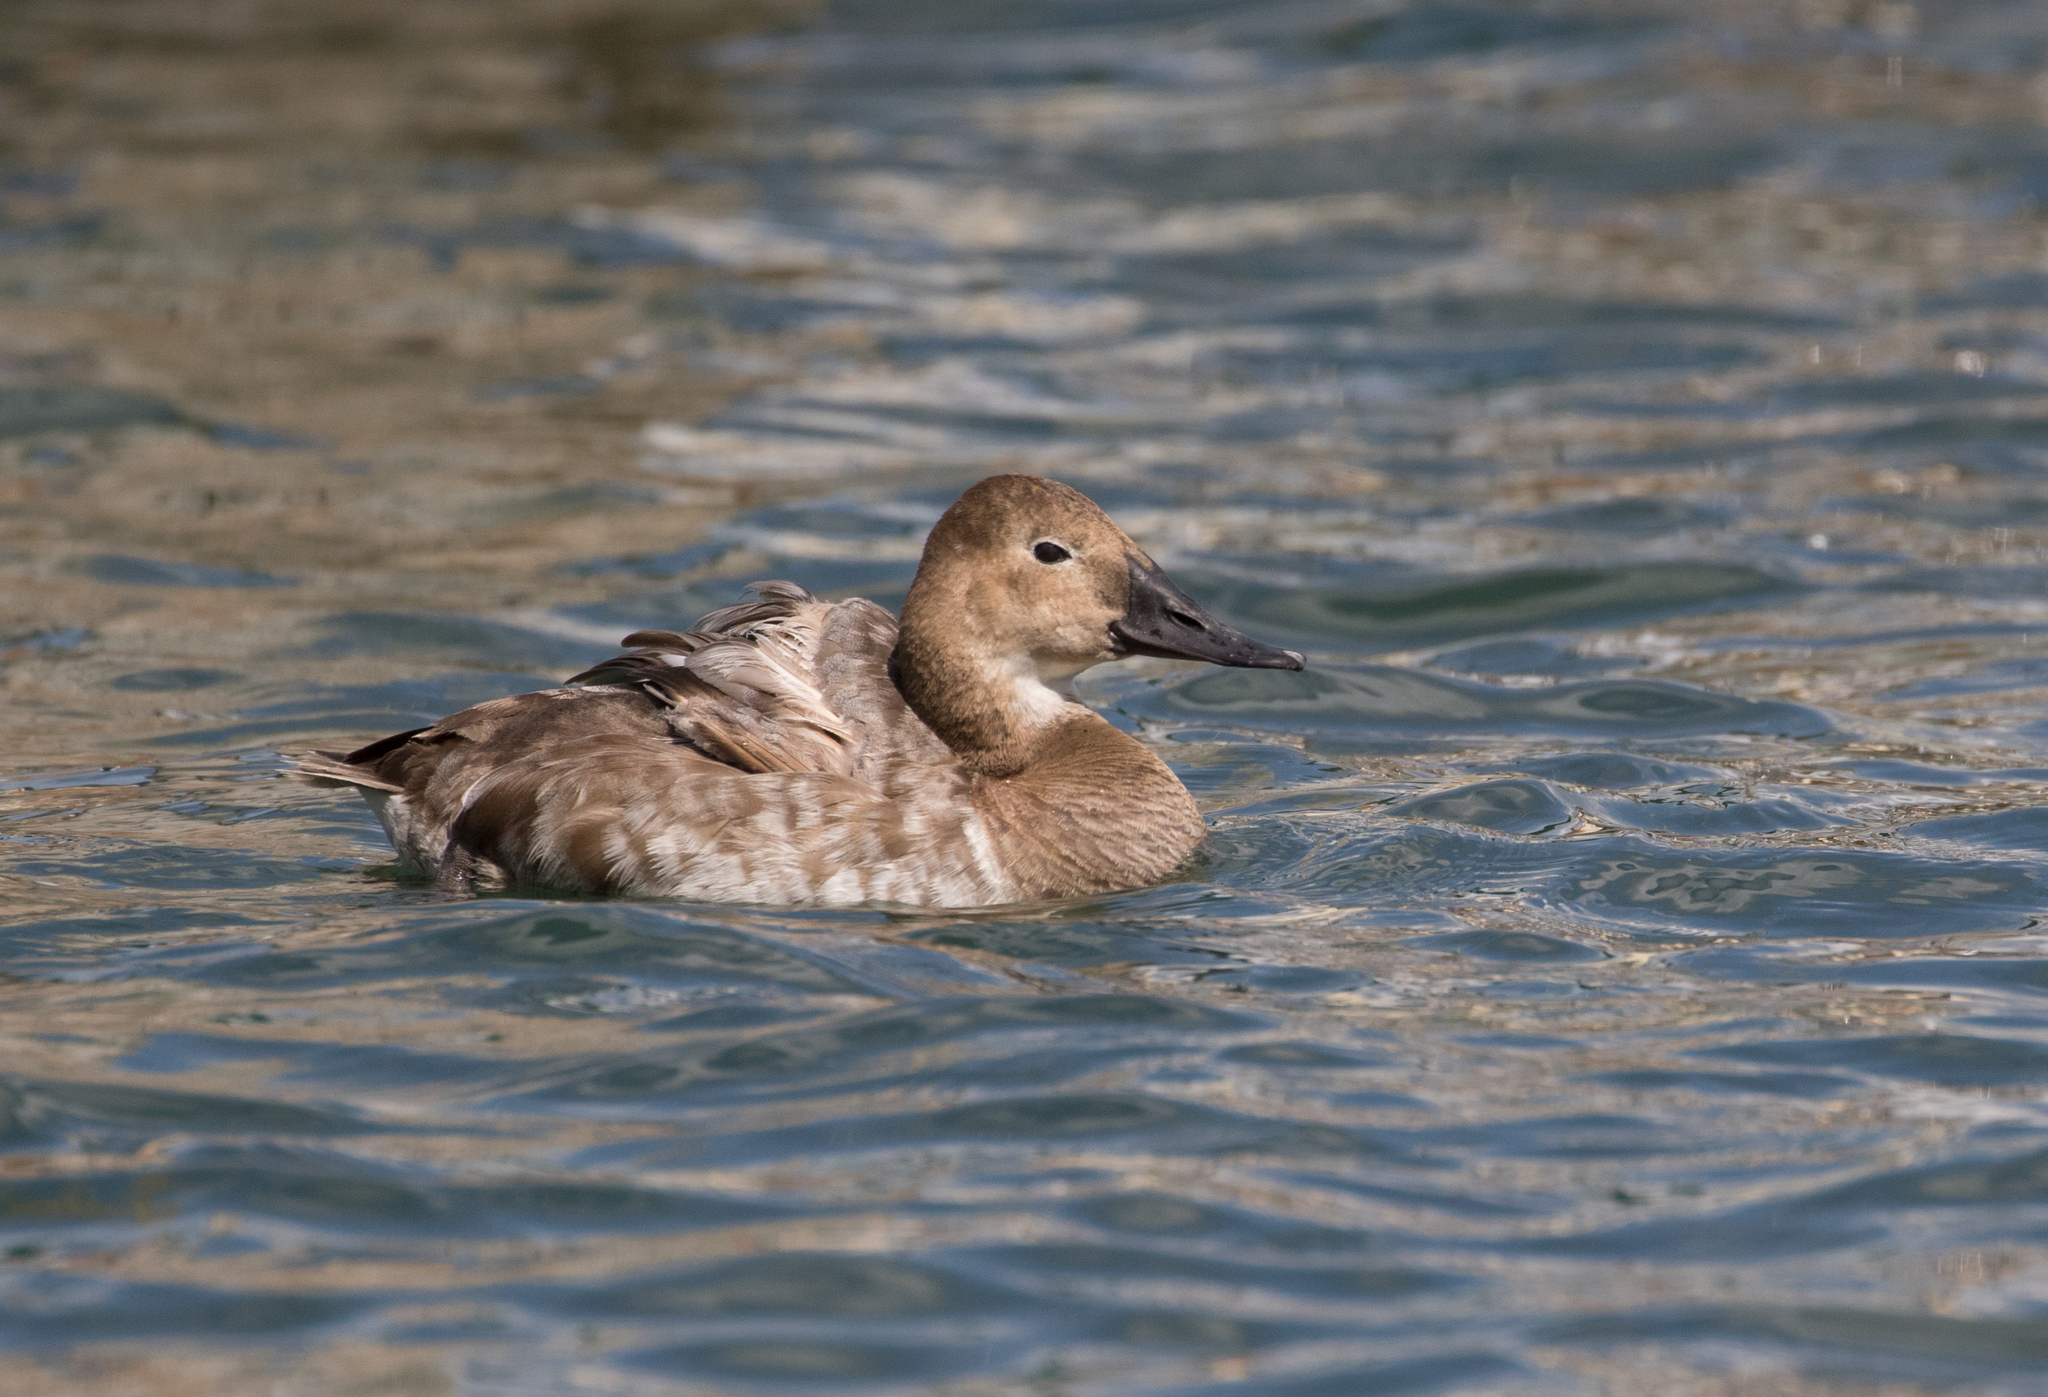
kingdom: Animalia
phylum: Chordata
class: Aves
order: Anseriformes
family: Anatidae
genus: Aythya
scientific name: Aythya valisineria
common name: Canvasback
